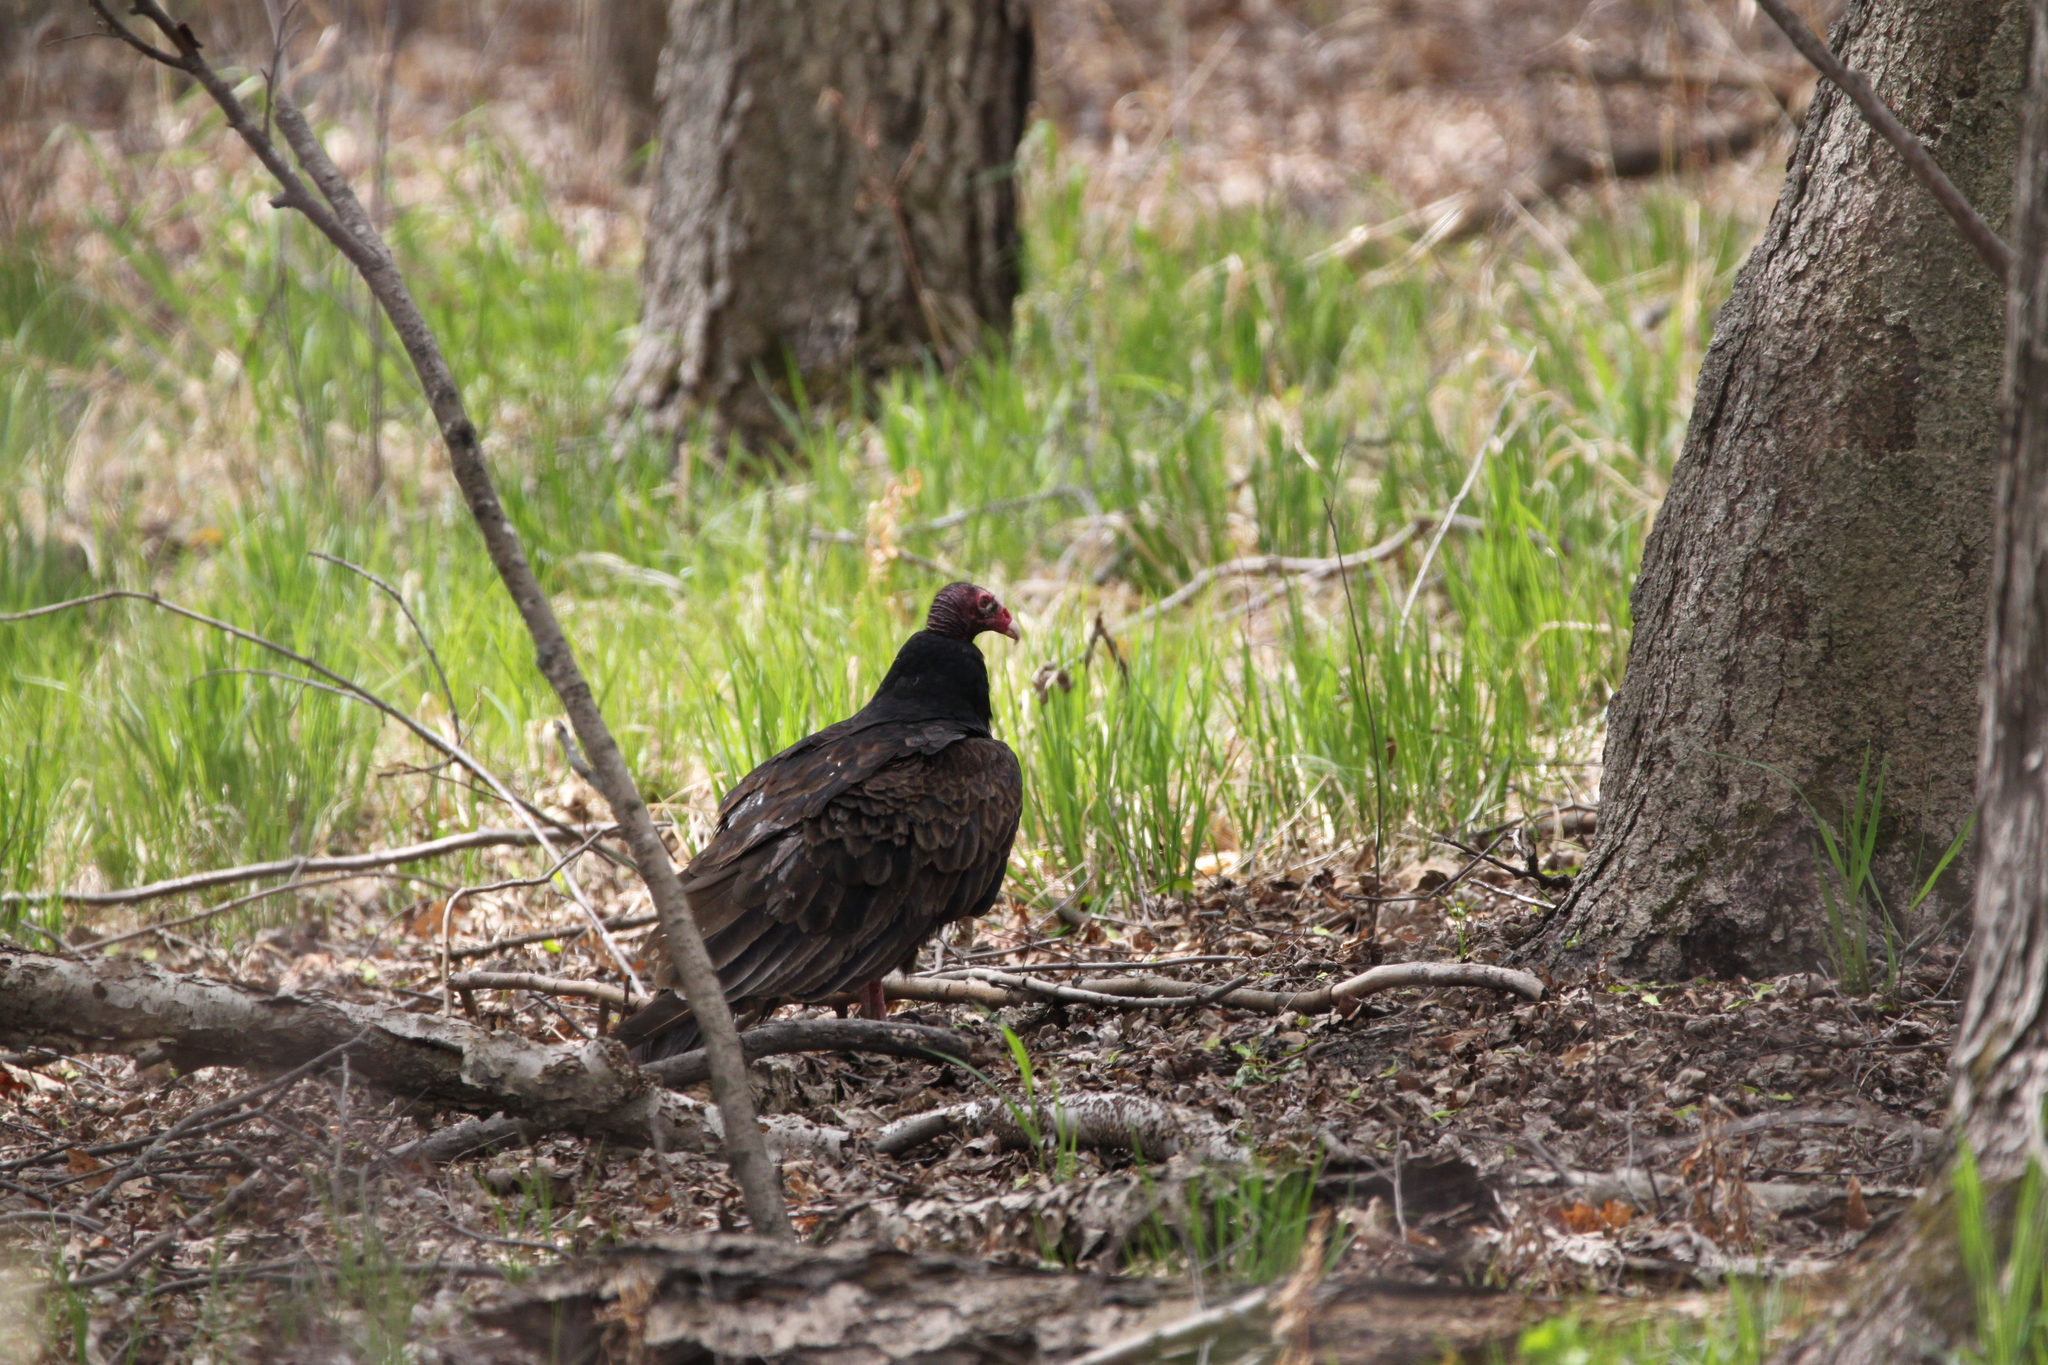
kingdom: Animalia
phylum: Chordata
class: Aves
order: Accipitriformes
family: Cathartidae
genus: Cathartes
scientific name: Cathartes aura
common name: Turkey vulture
